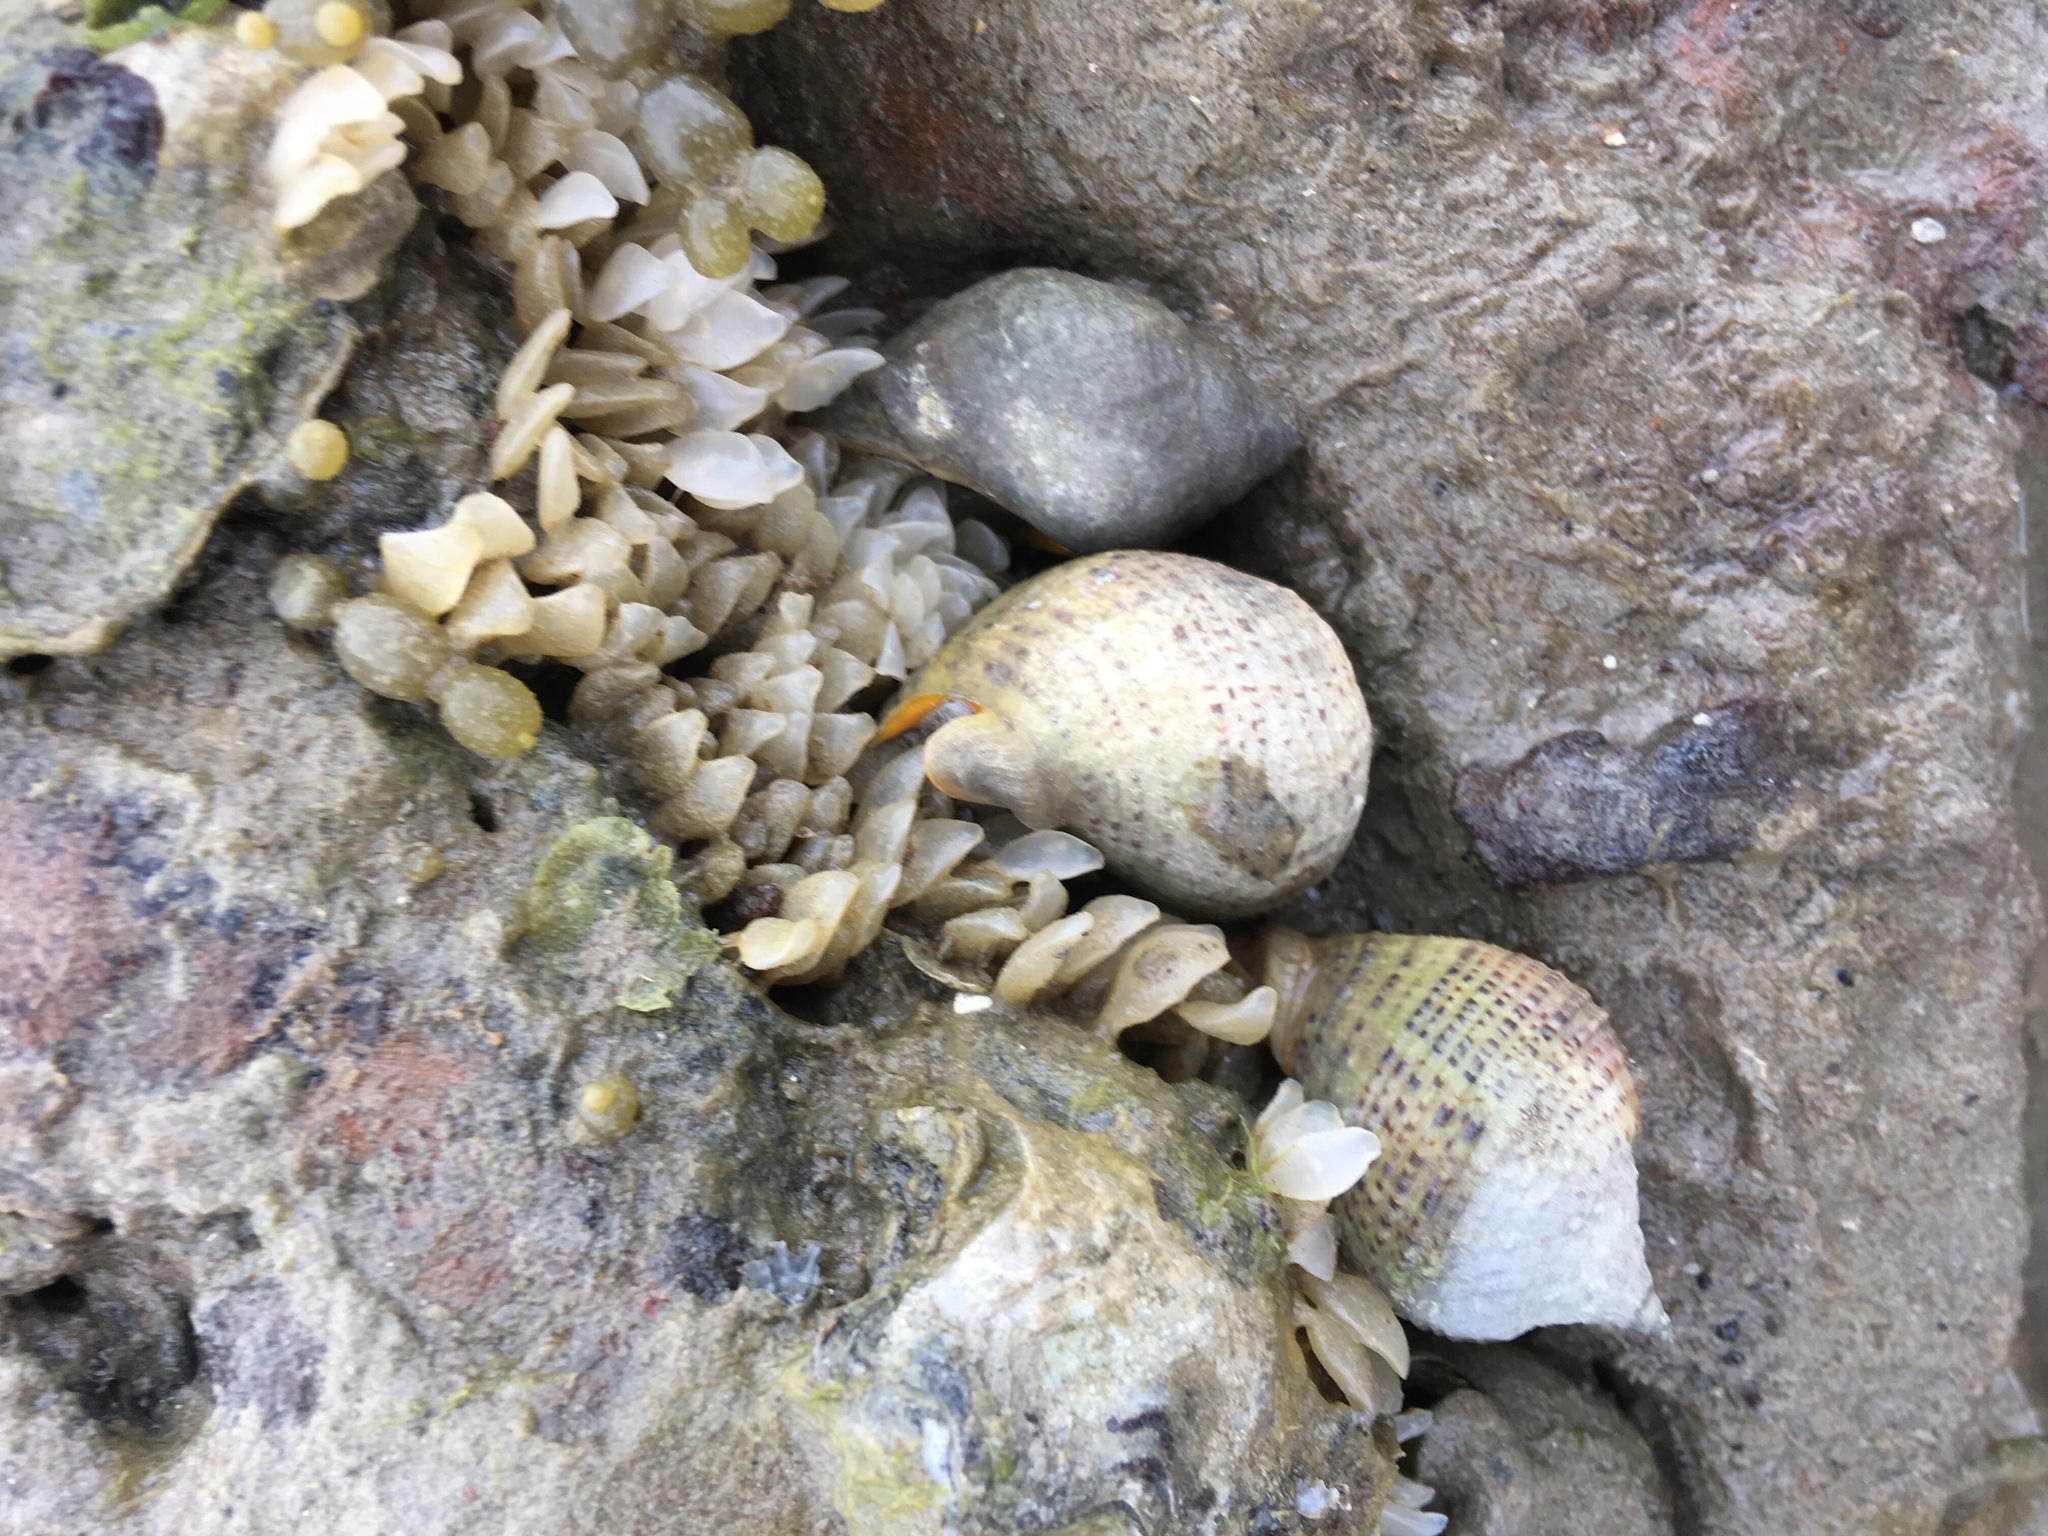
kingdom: Animalia
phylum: Mollusca
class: Gastropoda
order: Neogastropoda
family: Cominellidae
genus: Cominella
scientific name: Cominella adspersa
